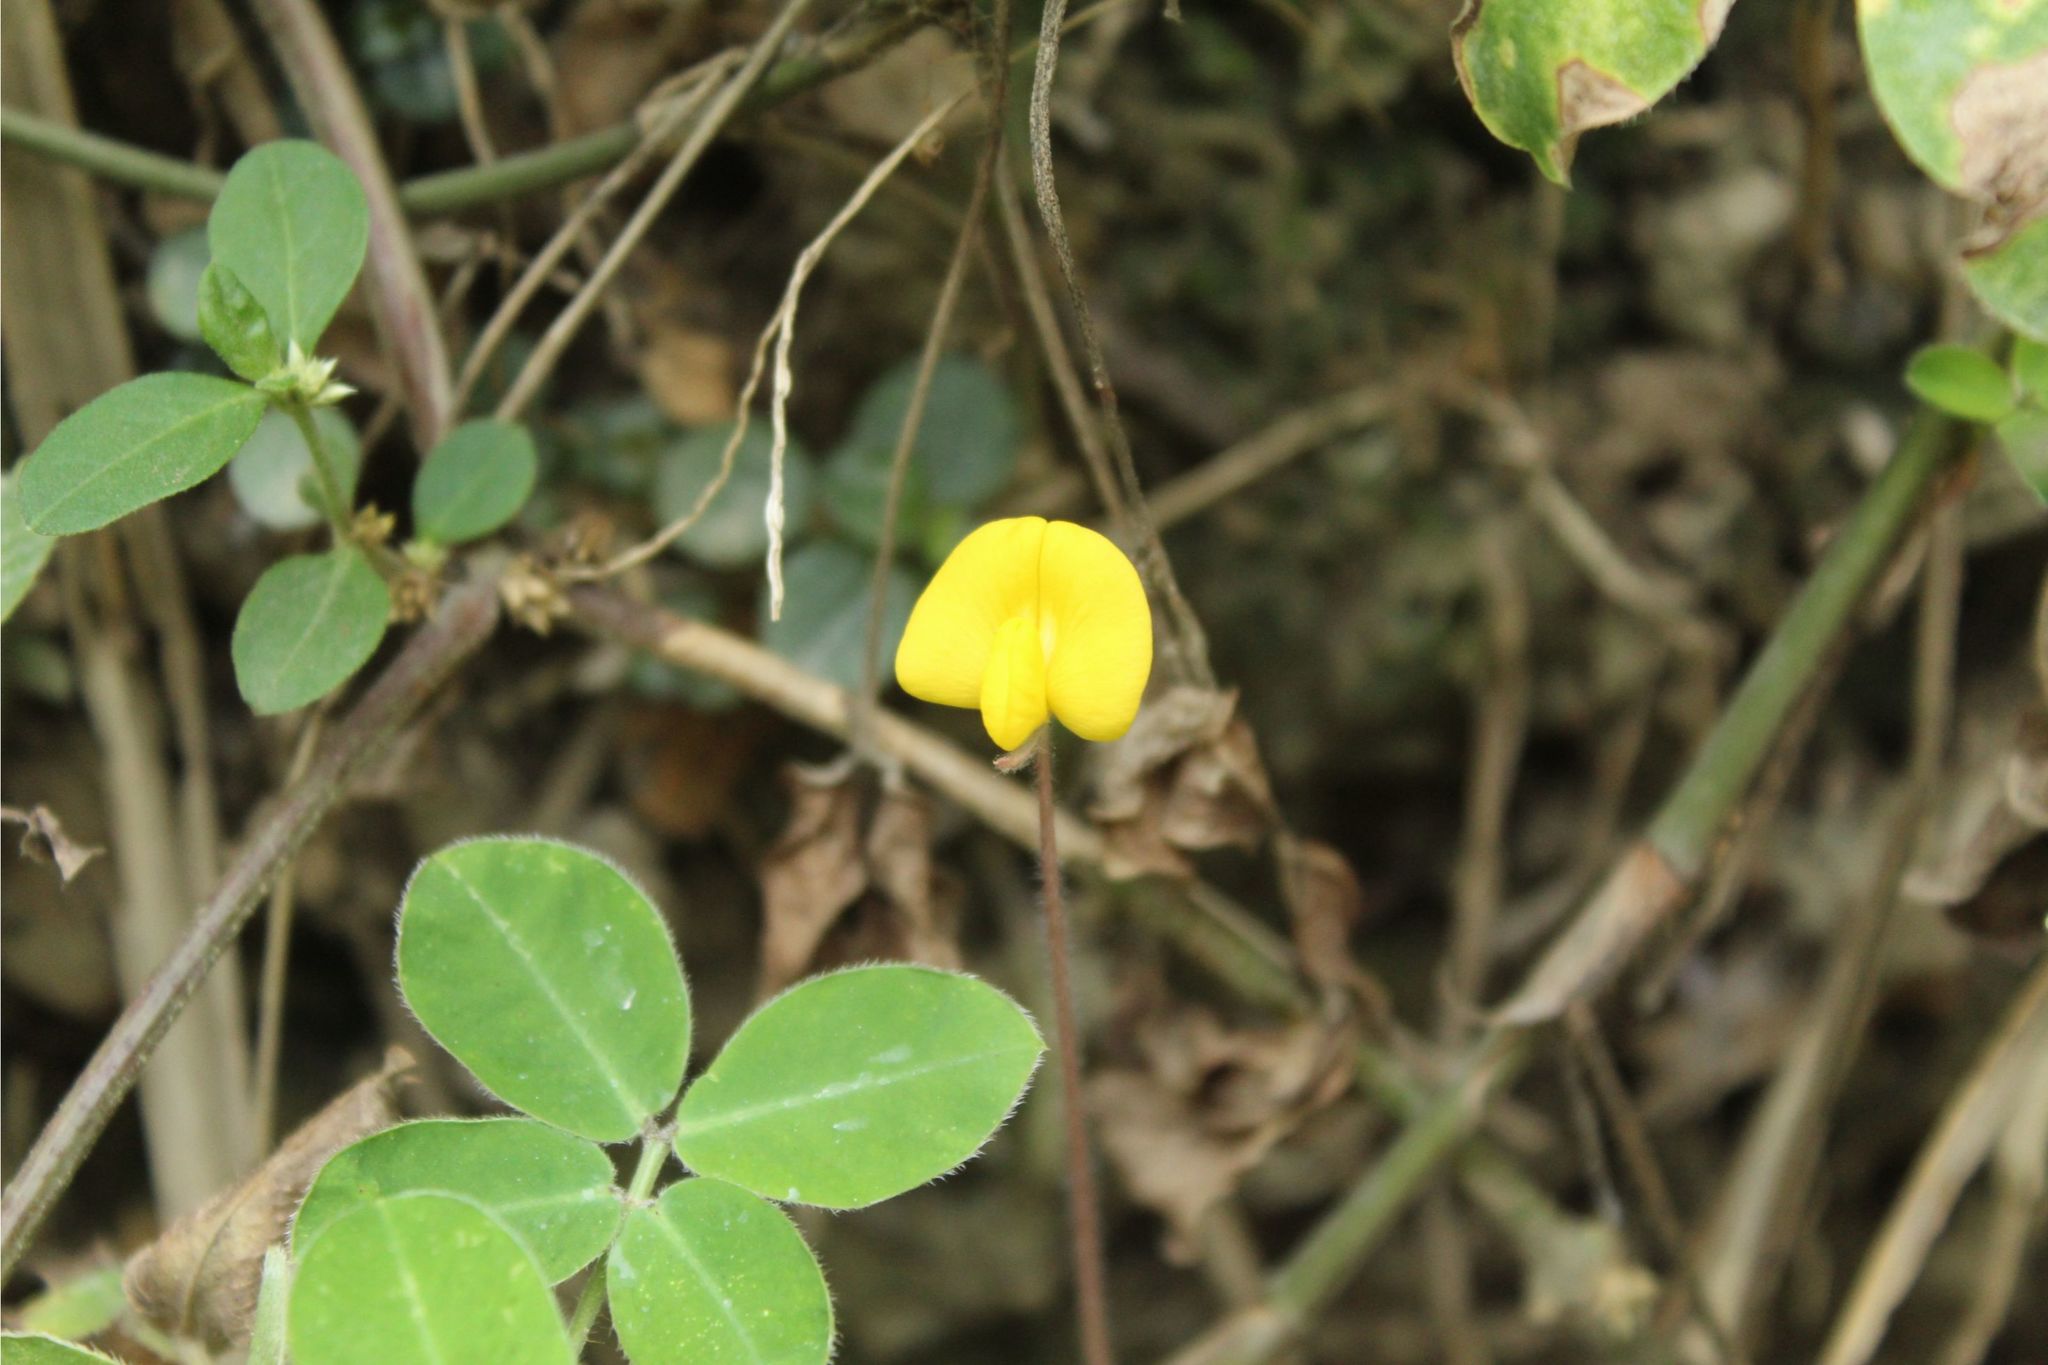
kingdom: Plantae
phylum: Tracheophyta
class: Magnoliopsida
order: Fabales
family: Fabaceae
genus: Arachis
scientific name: Arachis pintoi
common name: Pinto peanut
